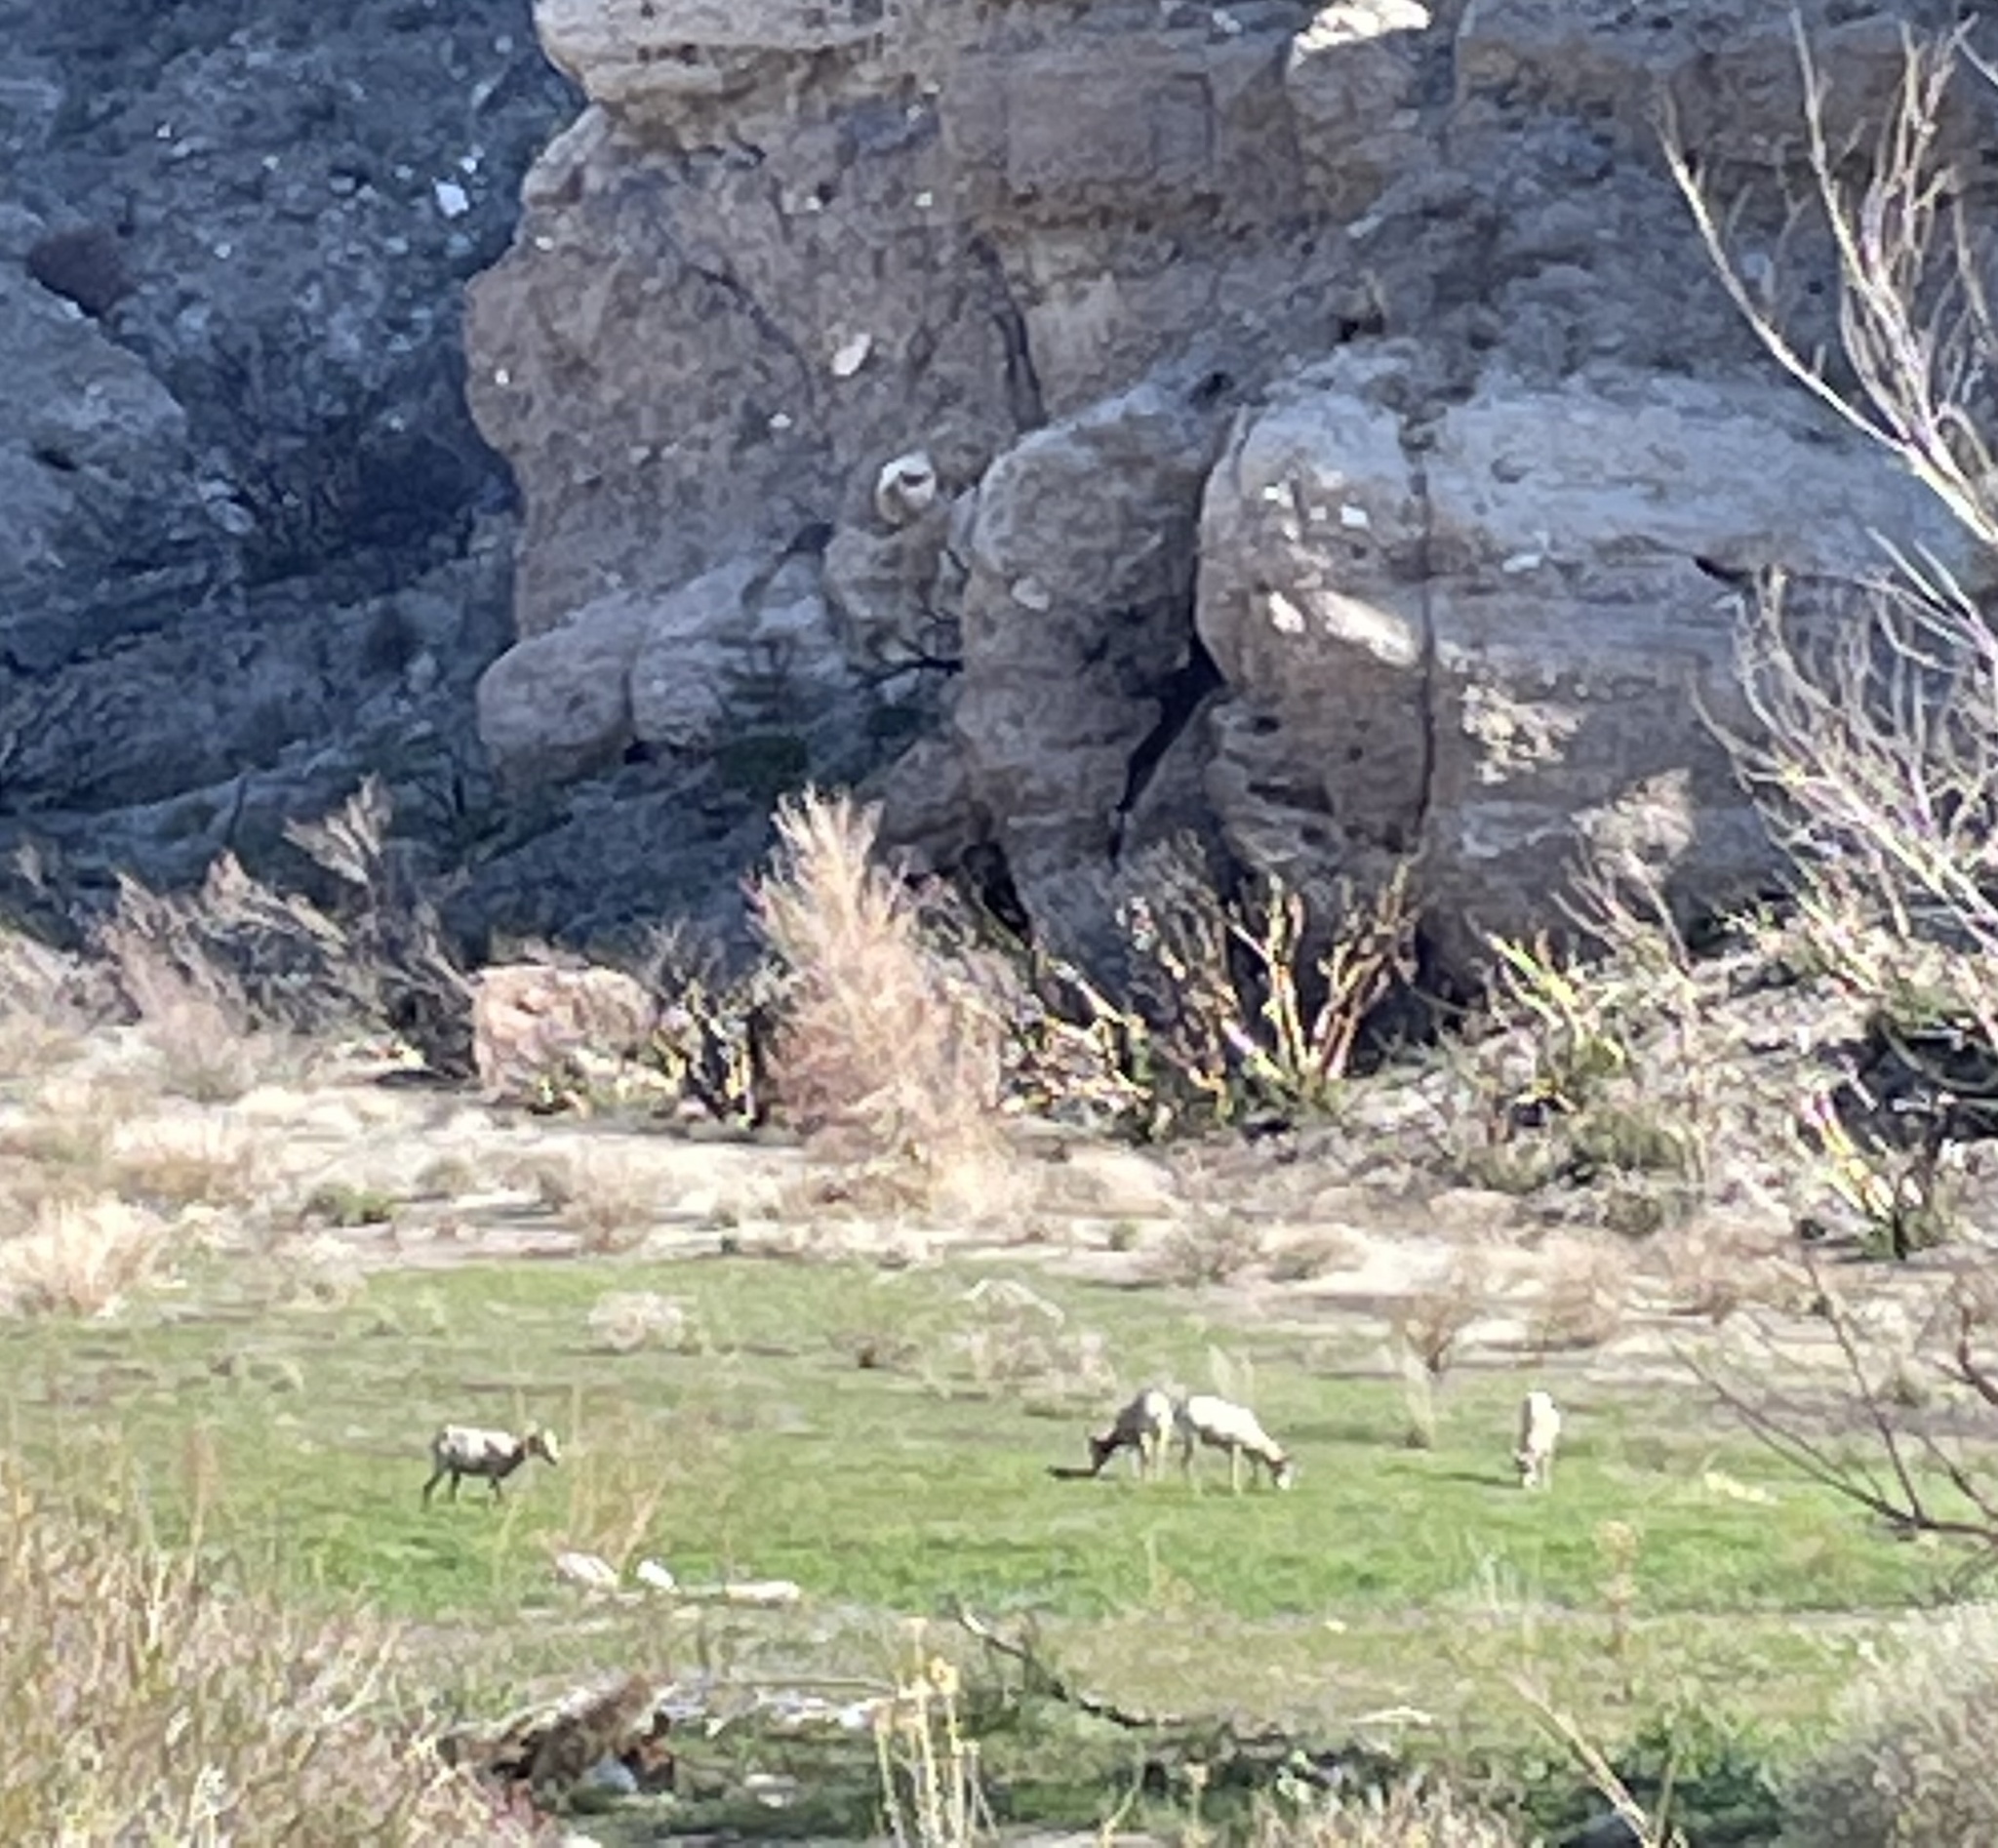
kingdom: Animalia
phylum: Chordata
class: Mammalia
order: Artiodactyla
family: Bovidae
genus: Ovis
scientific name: Ovis canadensis
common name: Bighorn sheep
